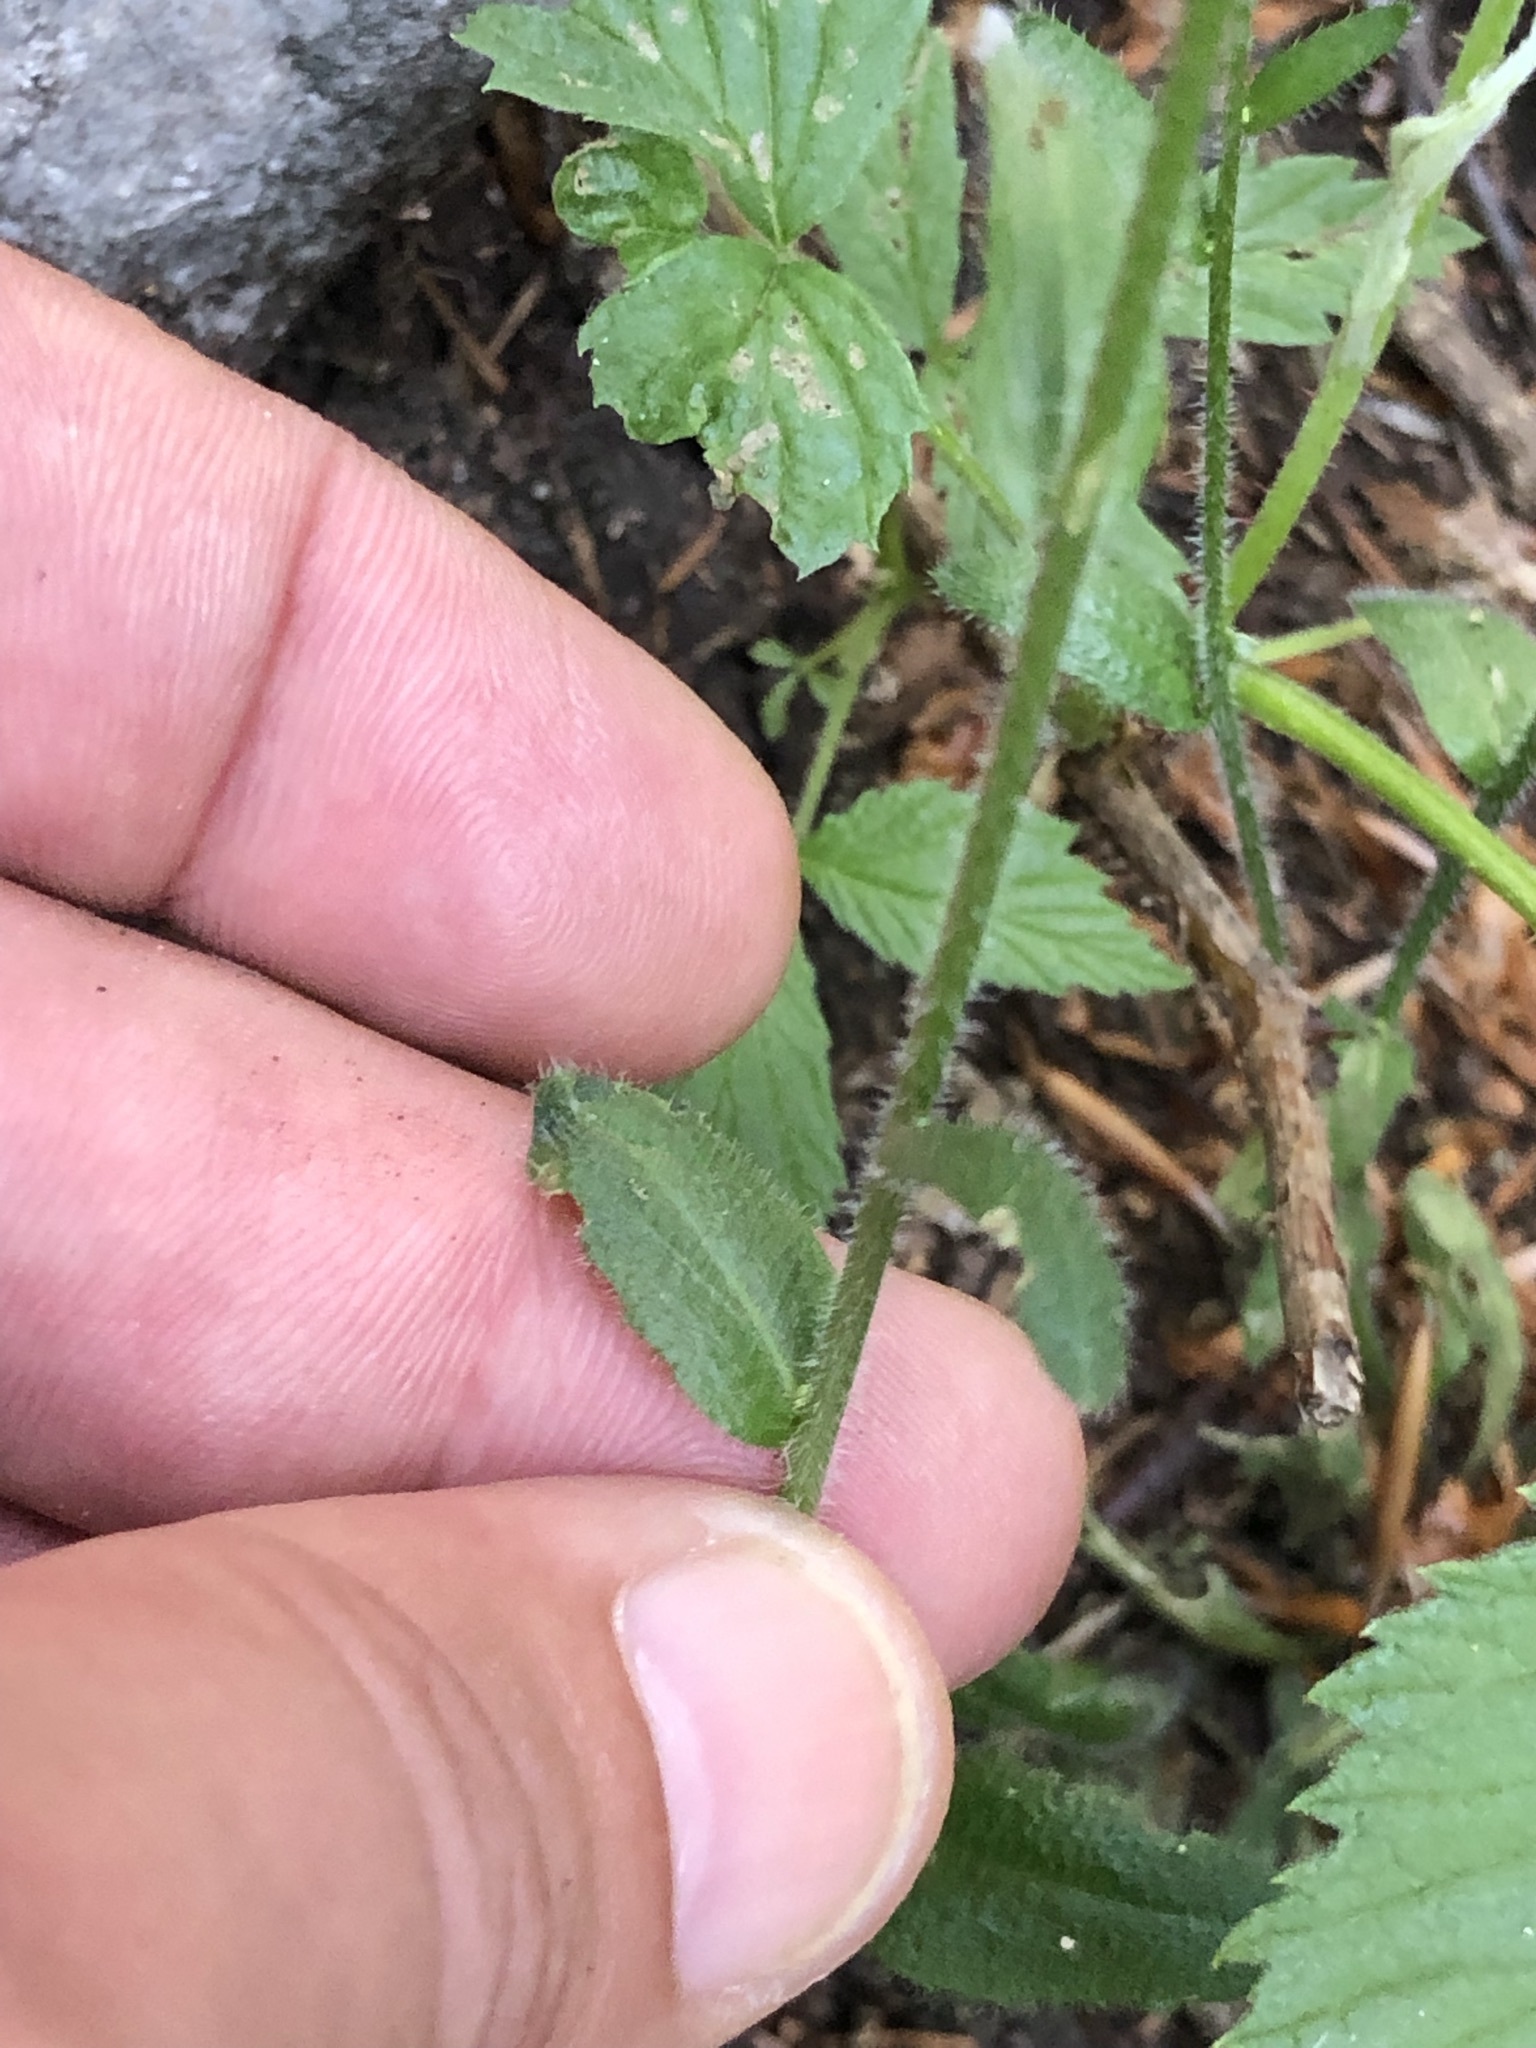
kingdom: Plantae
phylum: Tracheophyta
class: Magnoliopsida
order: Brassicales
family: Brassicaceae
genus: Arabis
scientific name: Arabis ciliata
